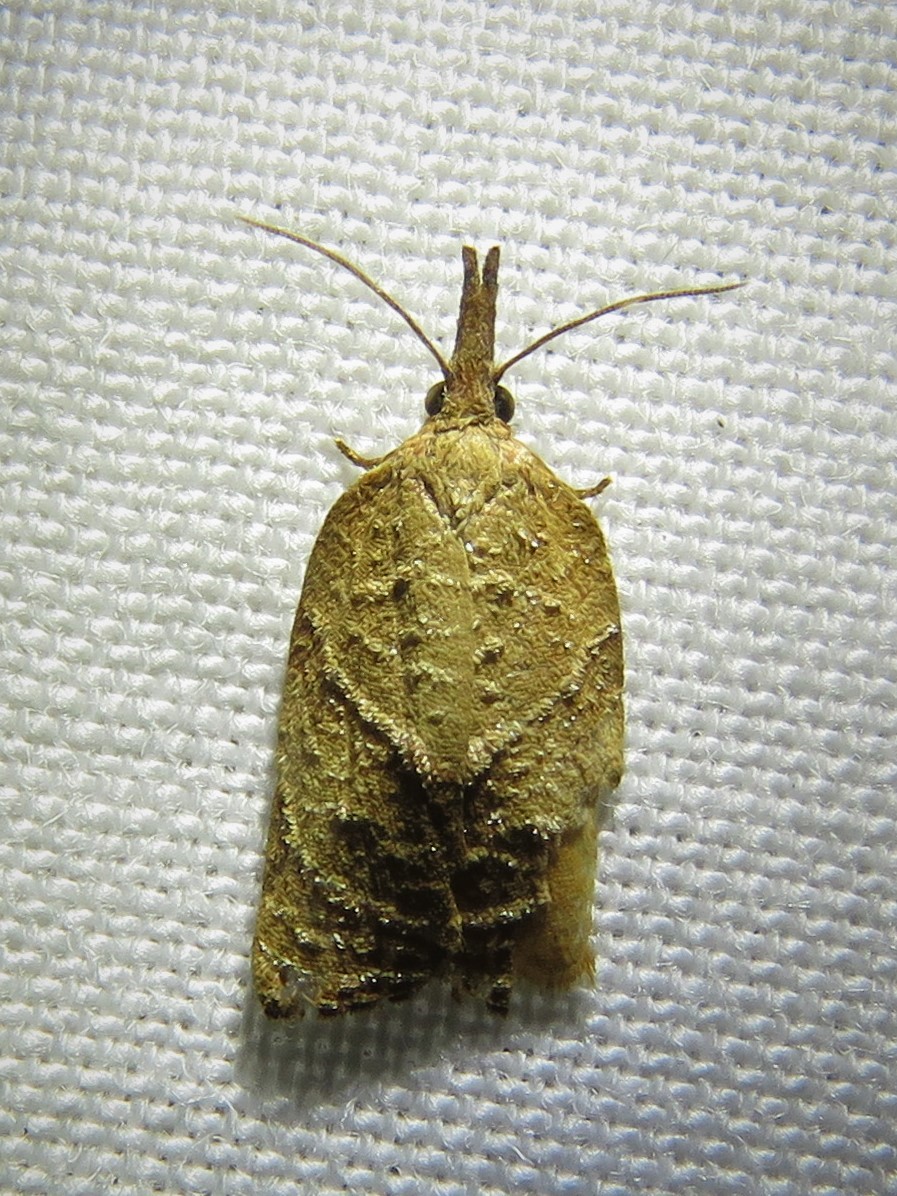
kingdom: Animalia
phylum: Arthropoda
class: Insecta
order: Lepidoptera
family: Tortricidae
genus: Platynota
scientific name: Platynota rostrana
